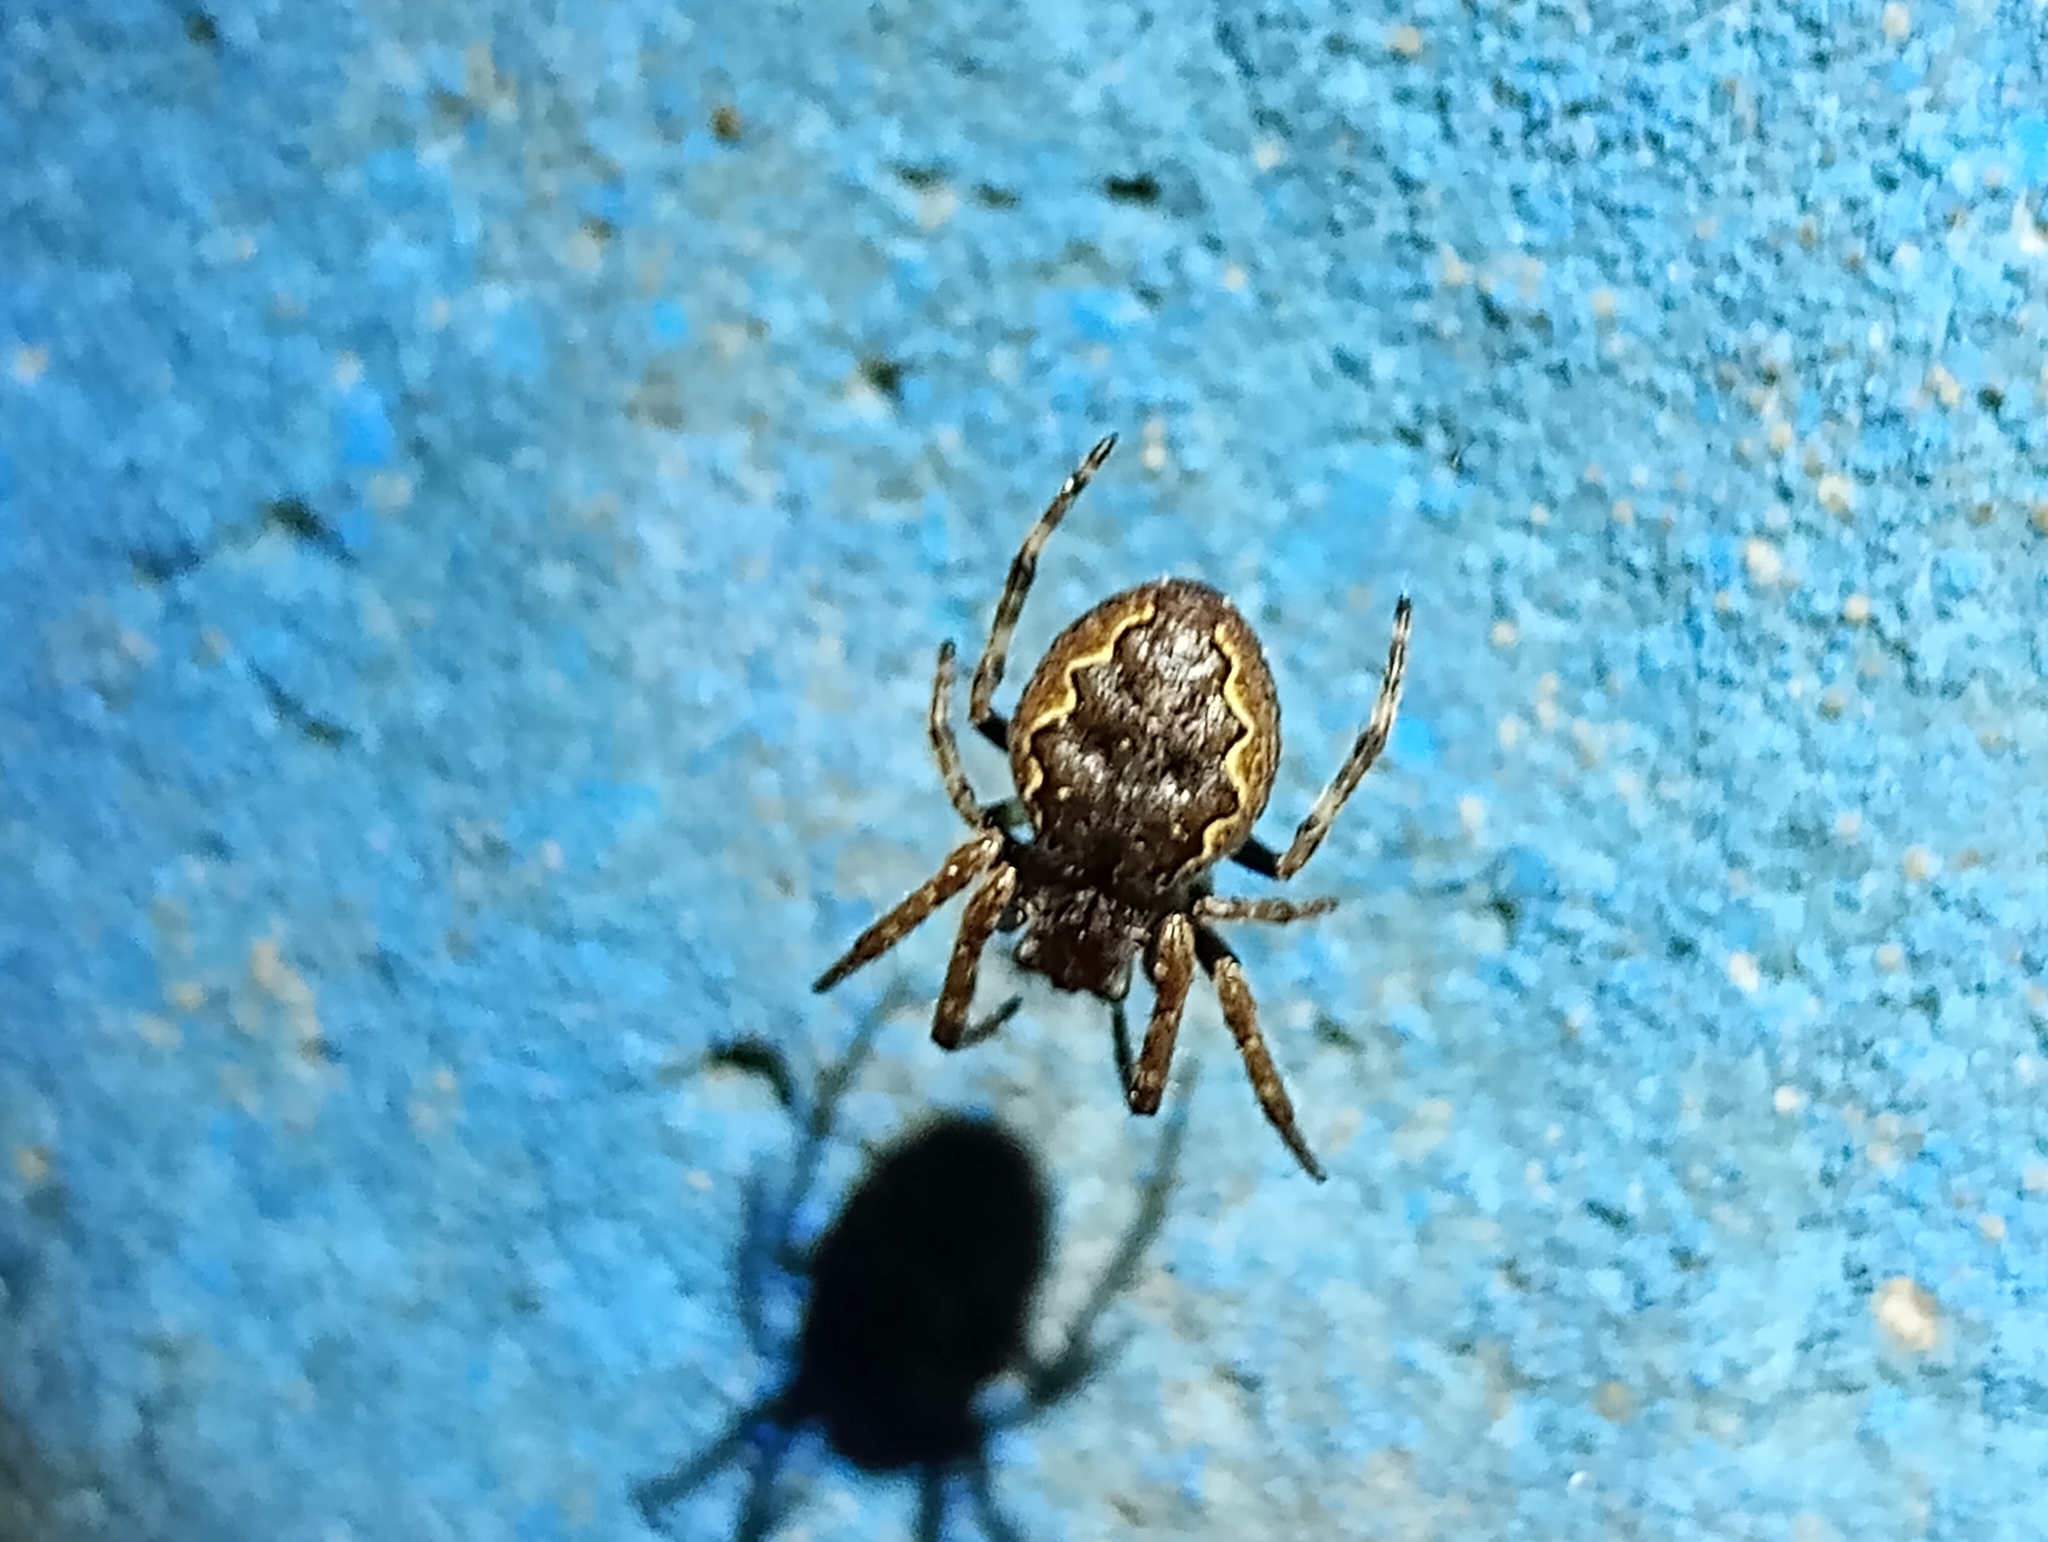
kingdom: Animalia
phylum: Arthropoda
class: Arachnida
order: Araneae
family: Araneidae
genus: Nuctenea
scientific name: Nuctenea umbratica
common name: Toad spider
